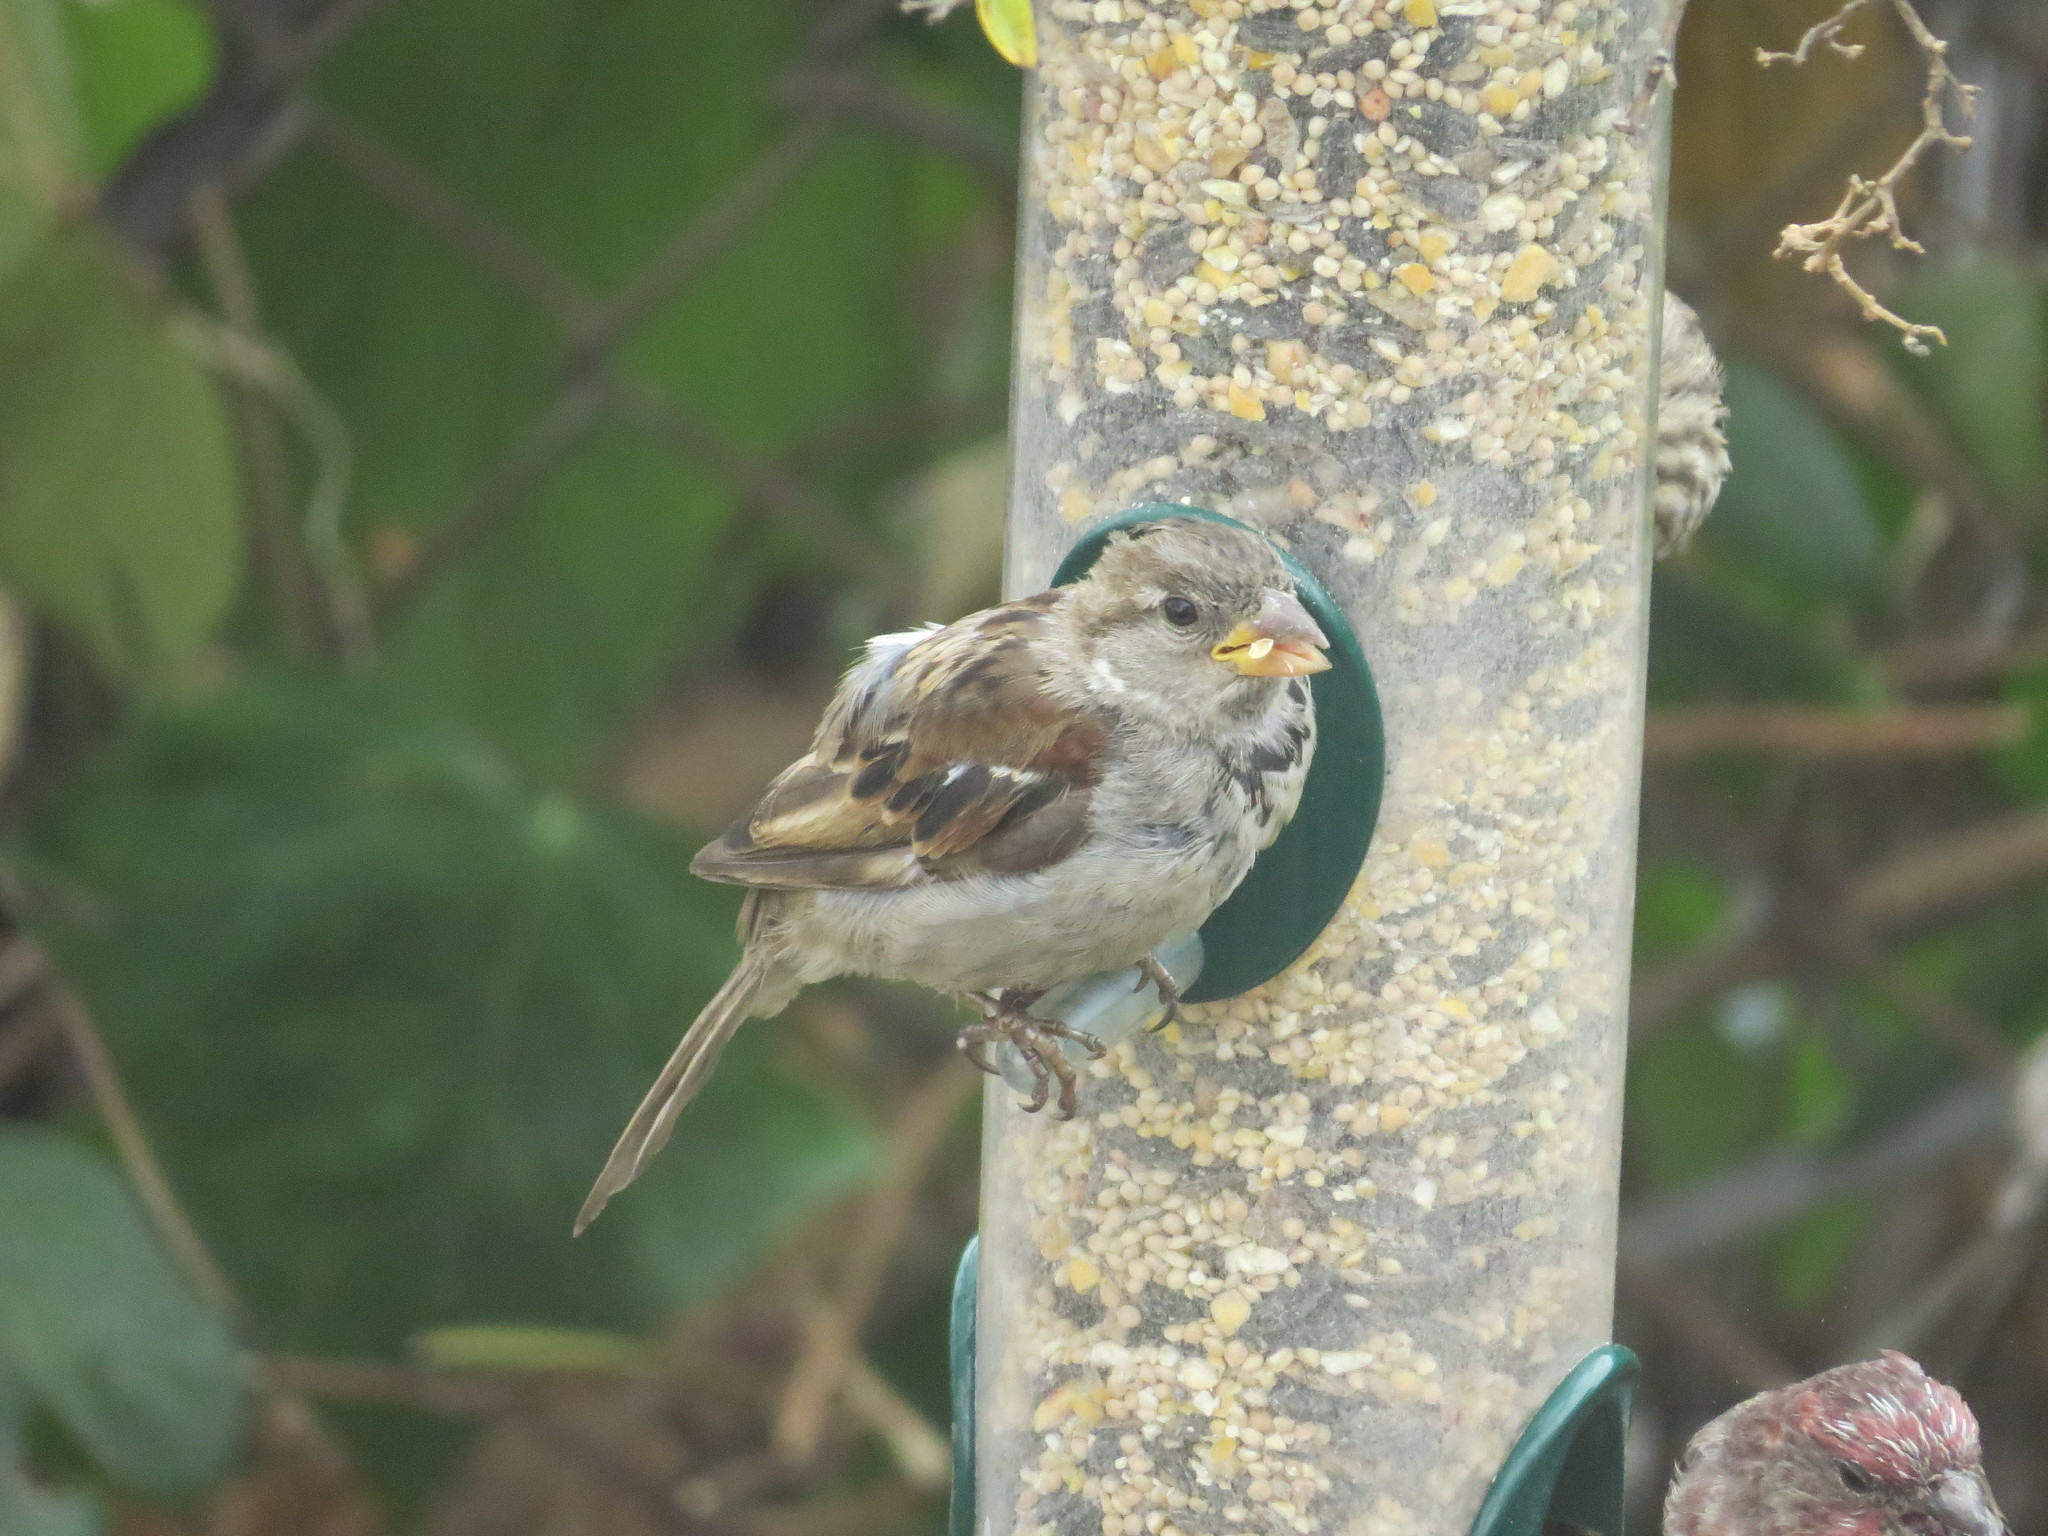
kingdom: Animalia
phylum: Chordata
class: Aves
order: Passeriformes
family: Passeridae
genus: Passer
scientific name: Passer domesticus
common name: House sparrow
